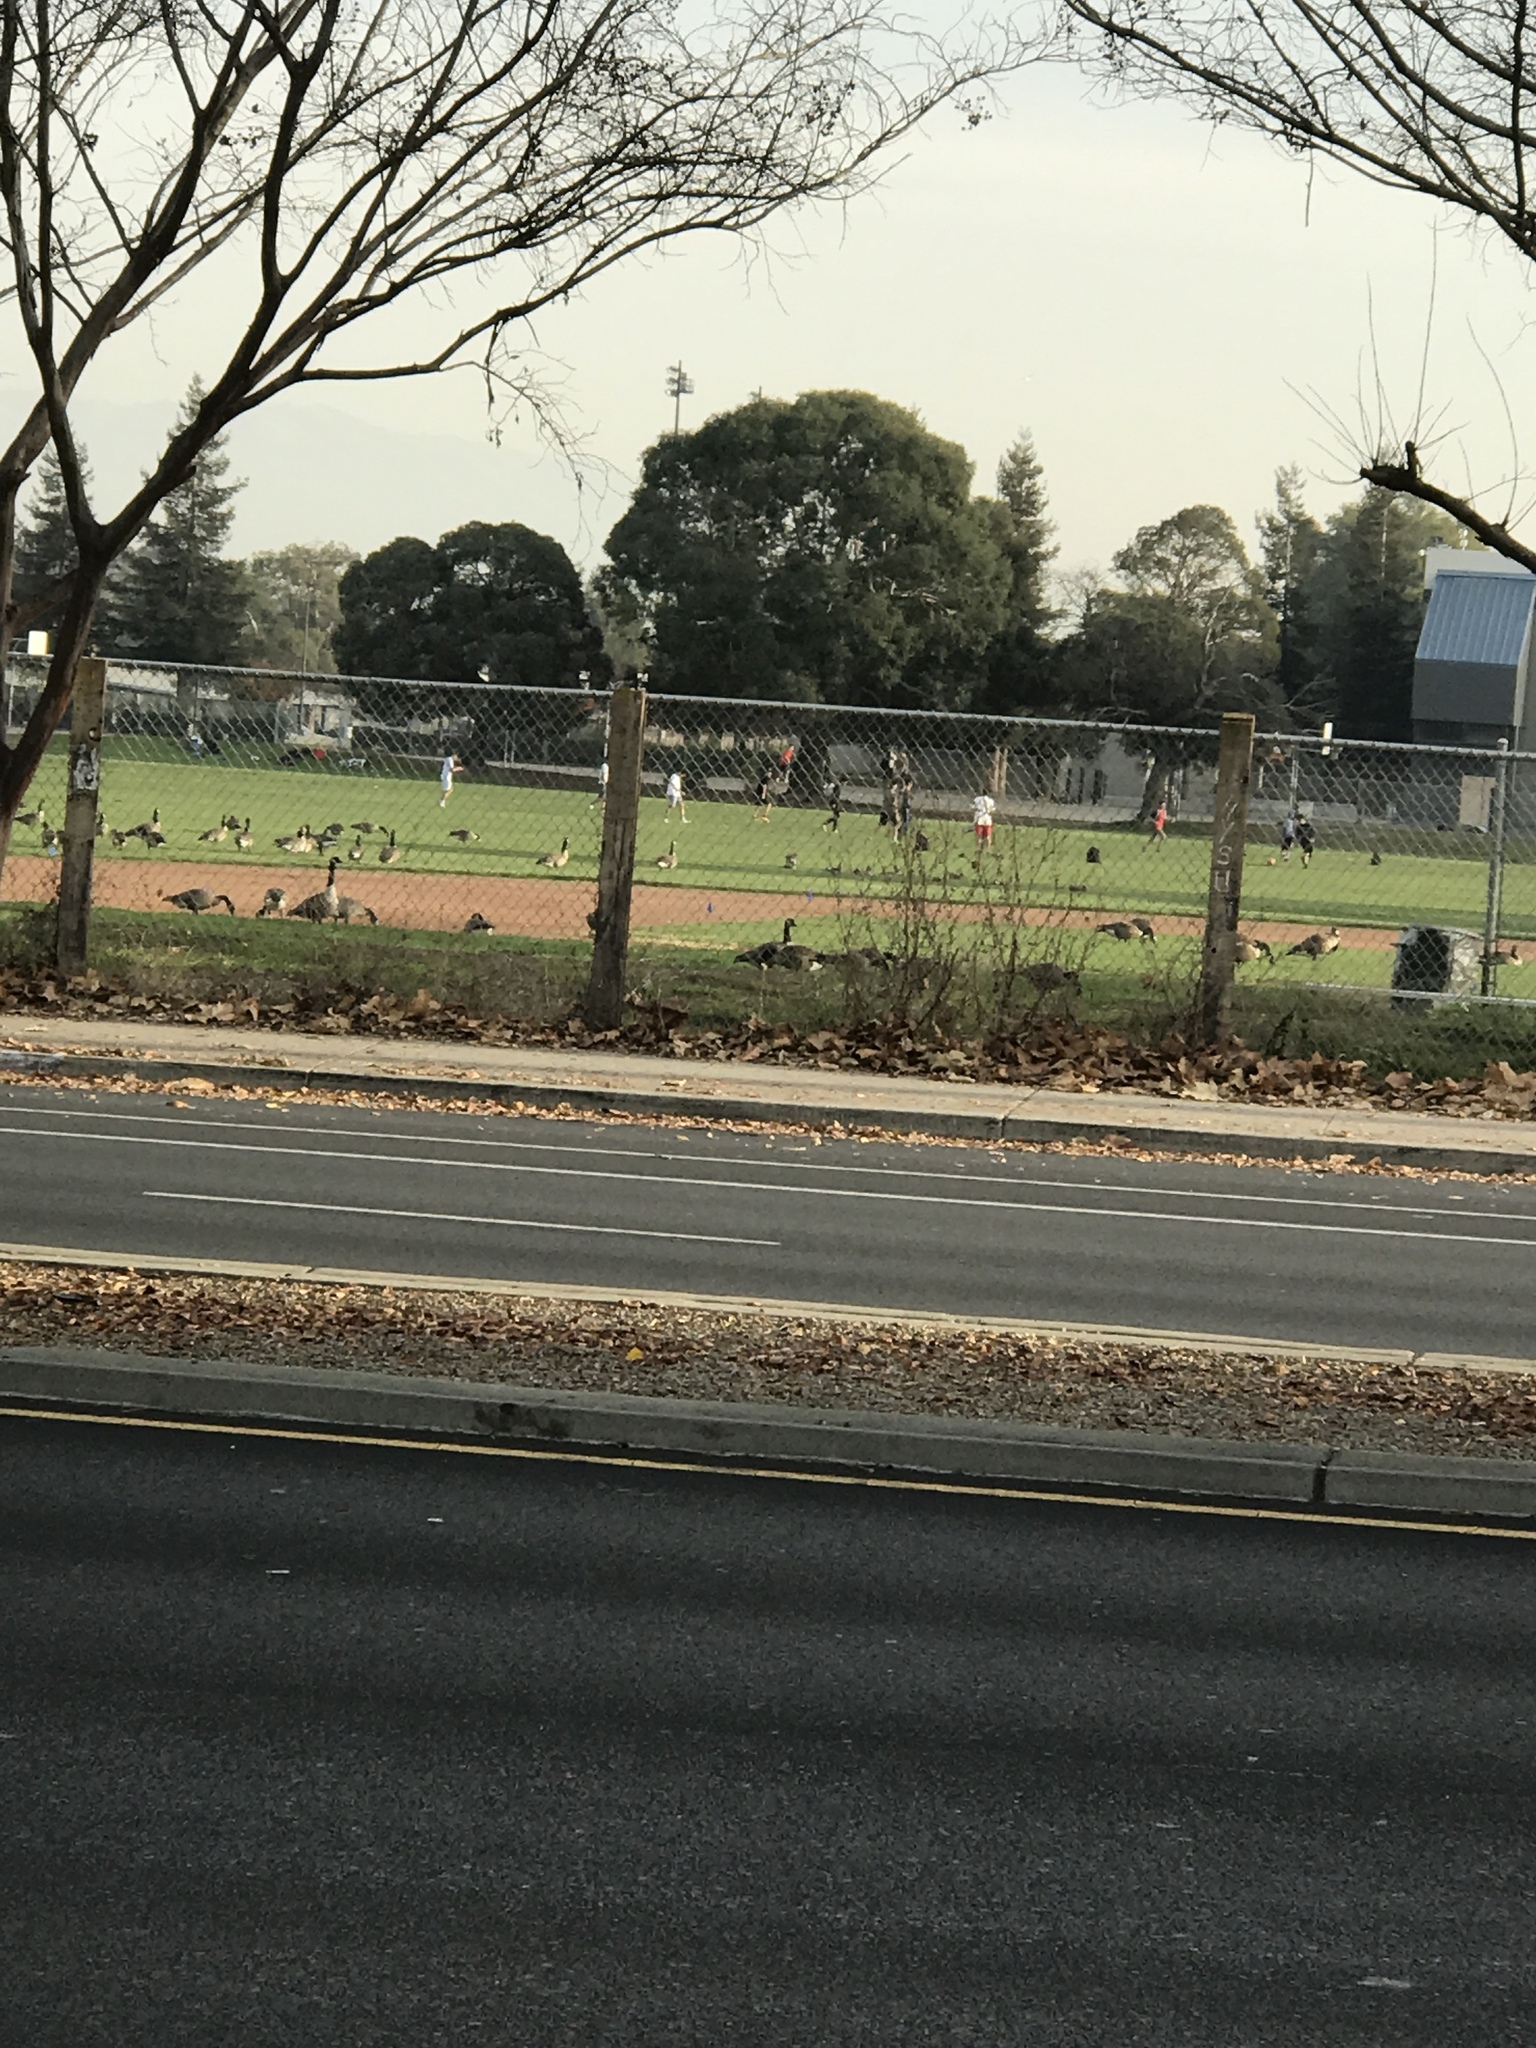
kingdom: Animalia
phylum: Chordata
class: Aves
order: Anseriformes
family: Anatidae
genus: Branta
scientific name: Branta canadensis
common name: Canada goose
